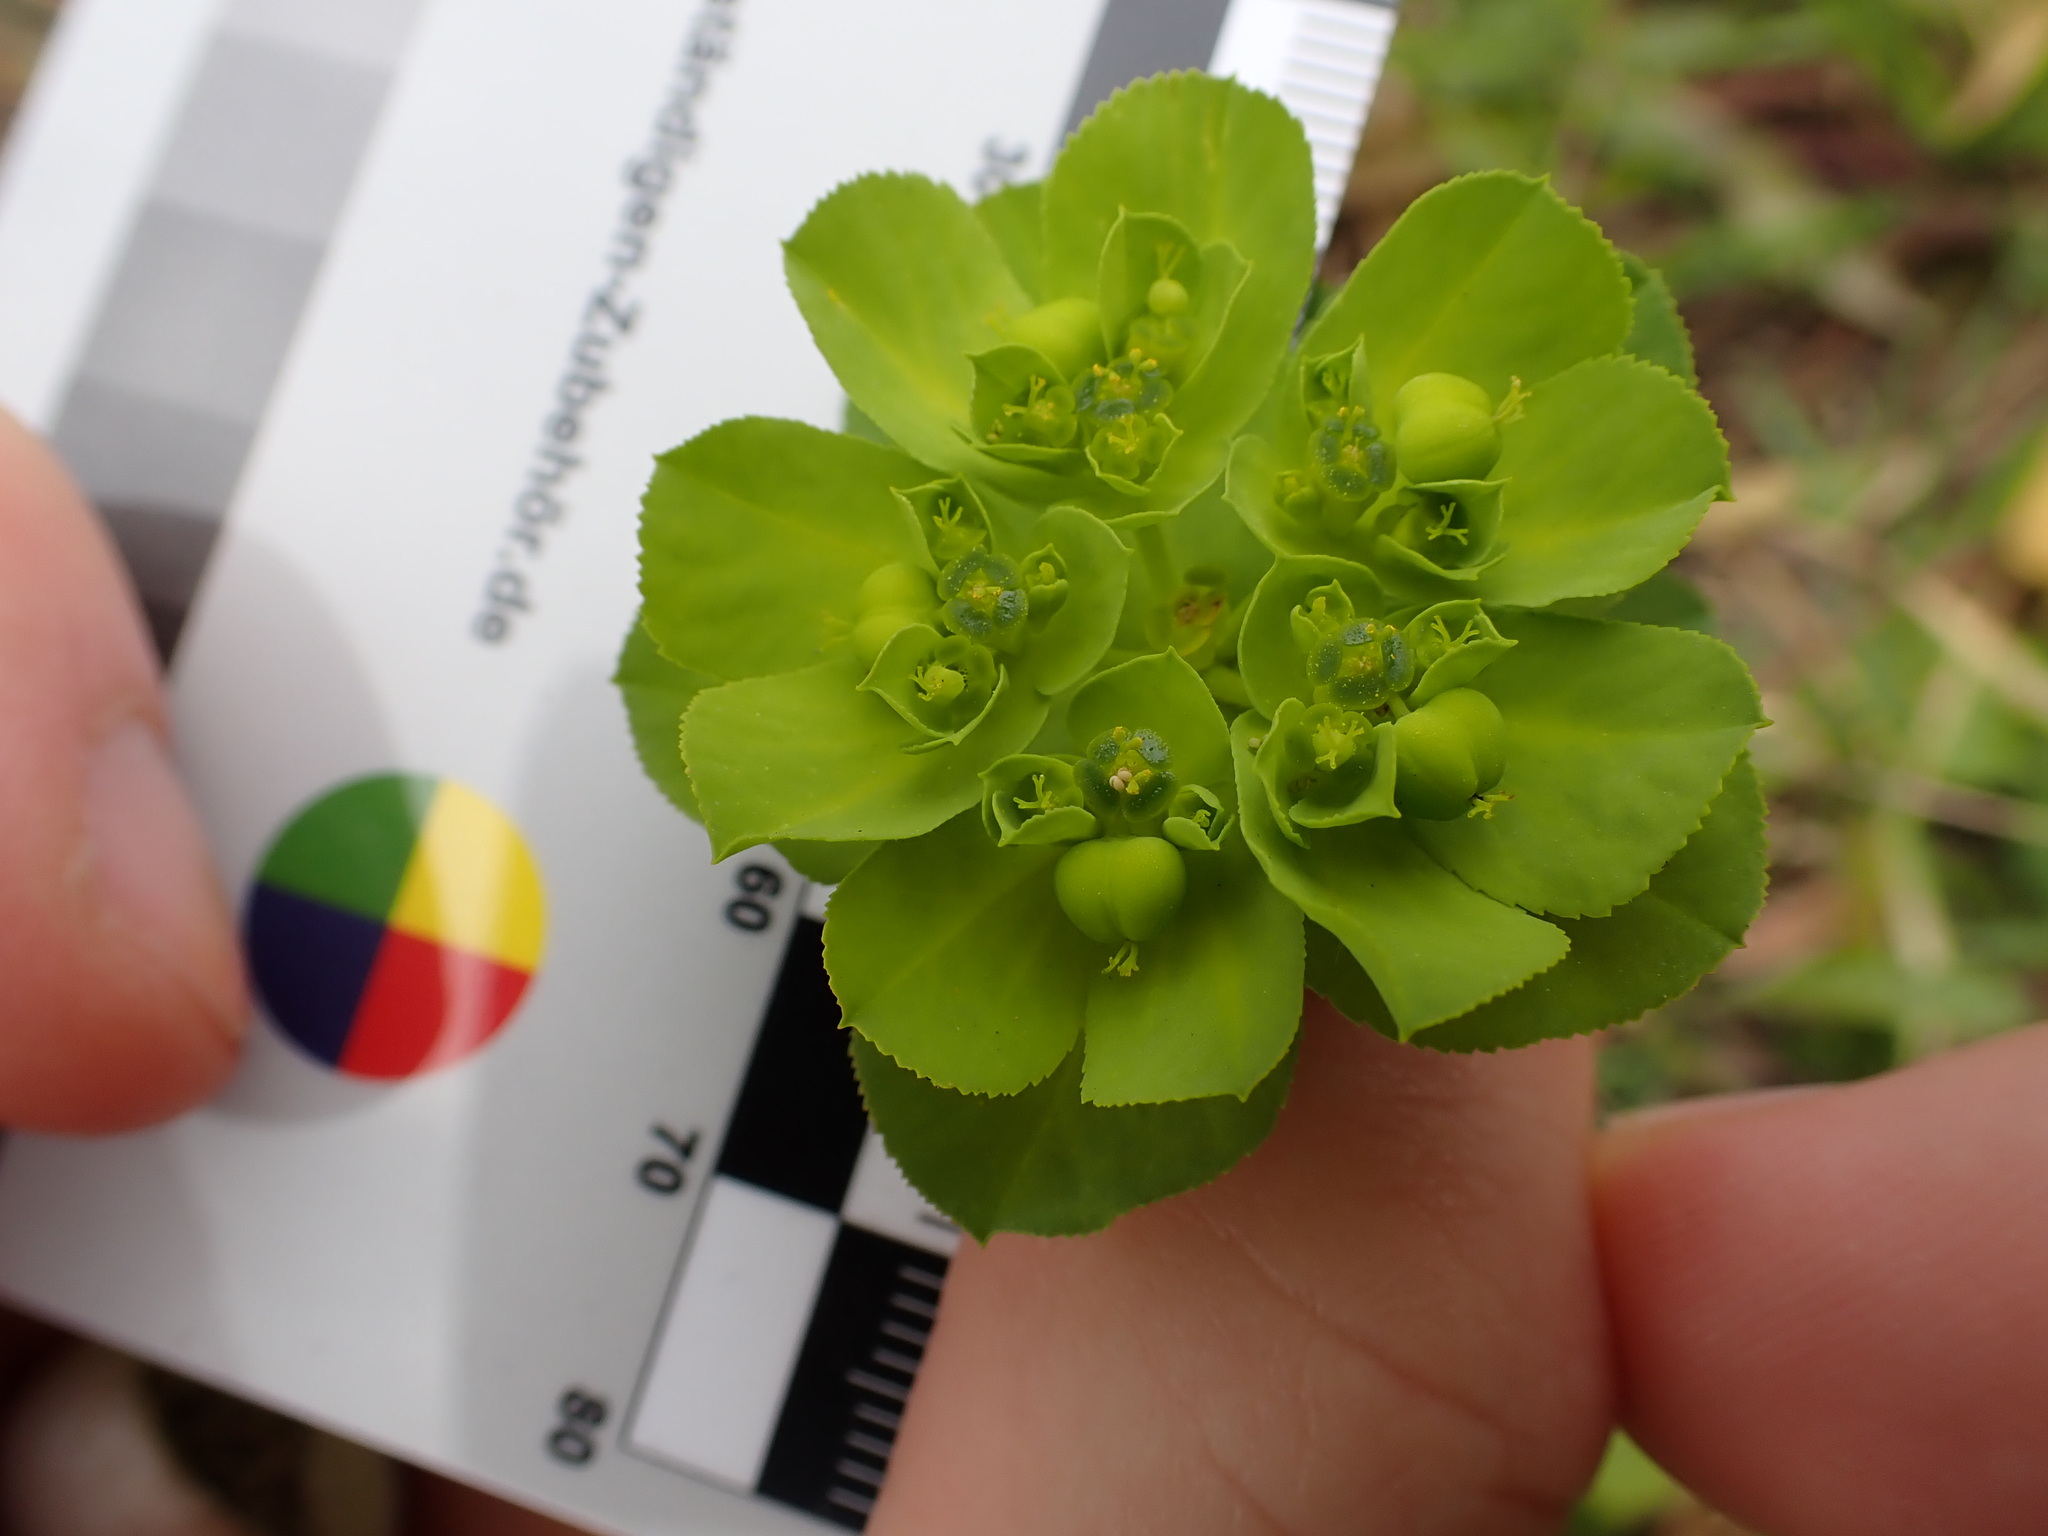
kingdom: Plantae
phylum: Tracheophyta
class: Magnoliopsida
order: Malpighiales
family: Euphorbiaceae
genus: Euphorbia
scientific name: Euphorbia helioscopia
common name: Sun spurge
